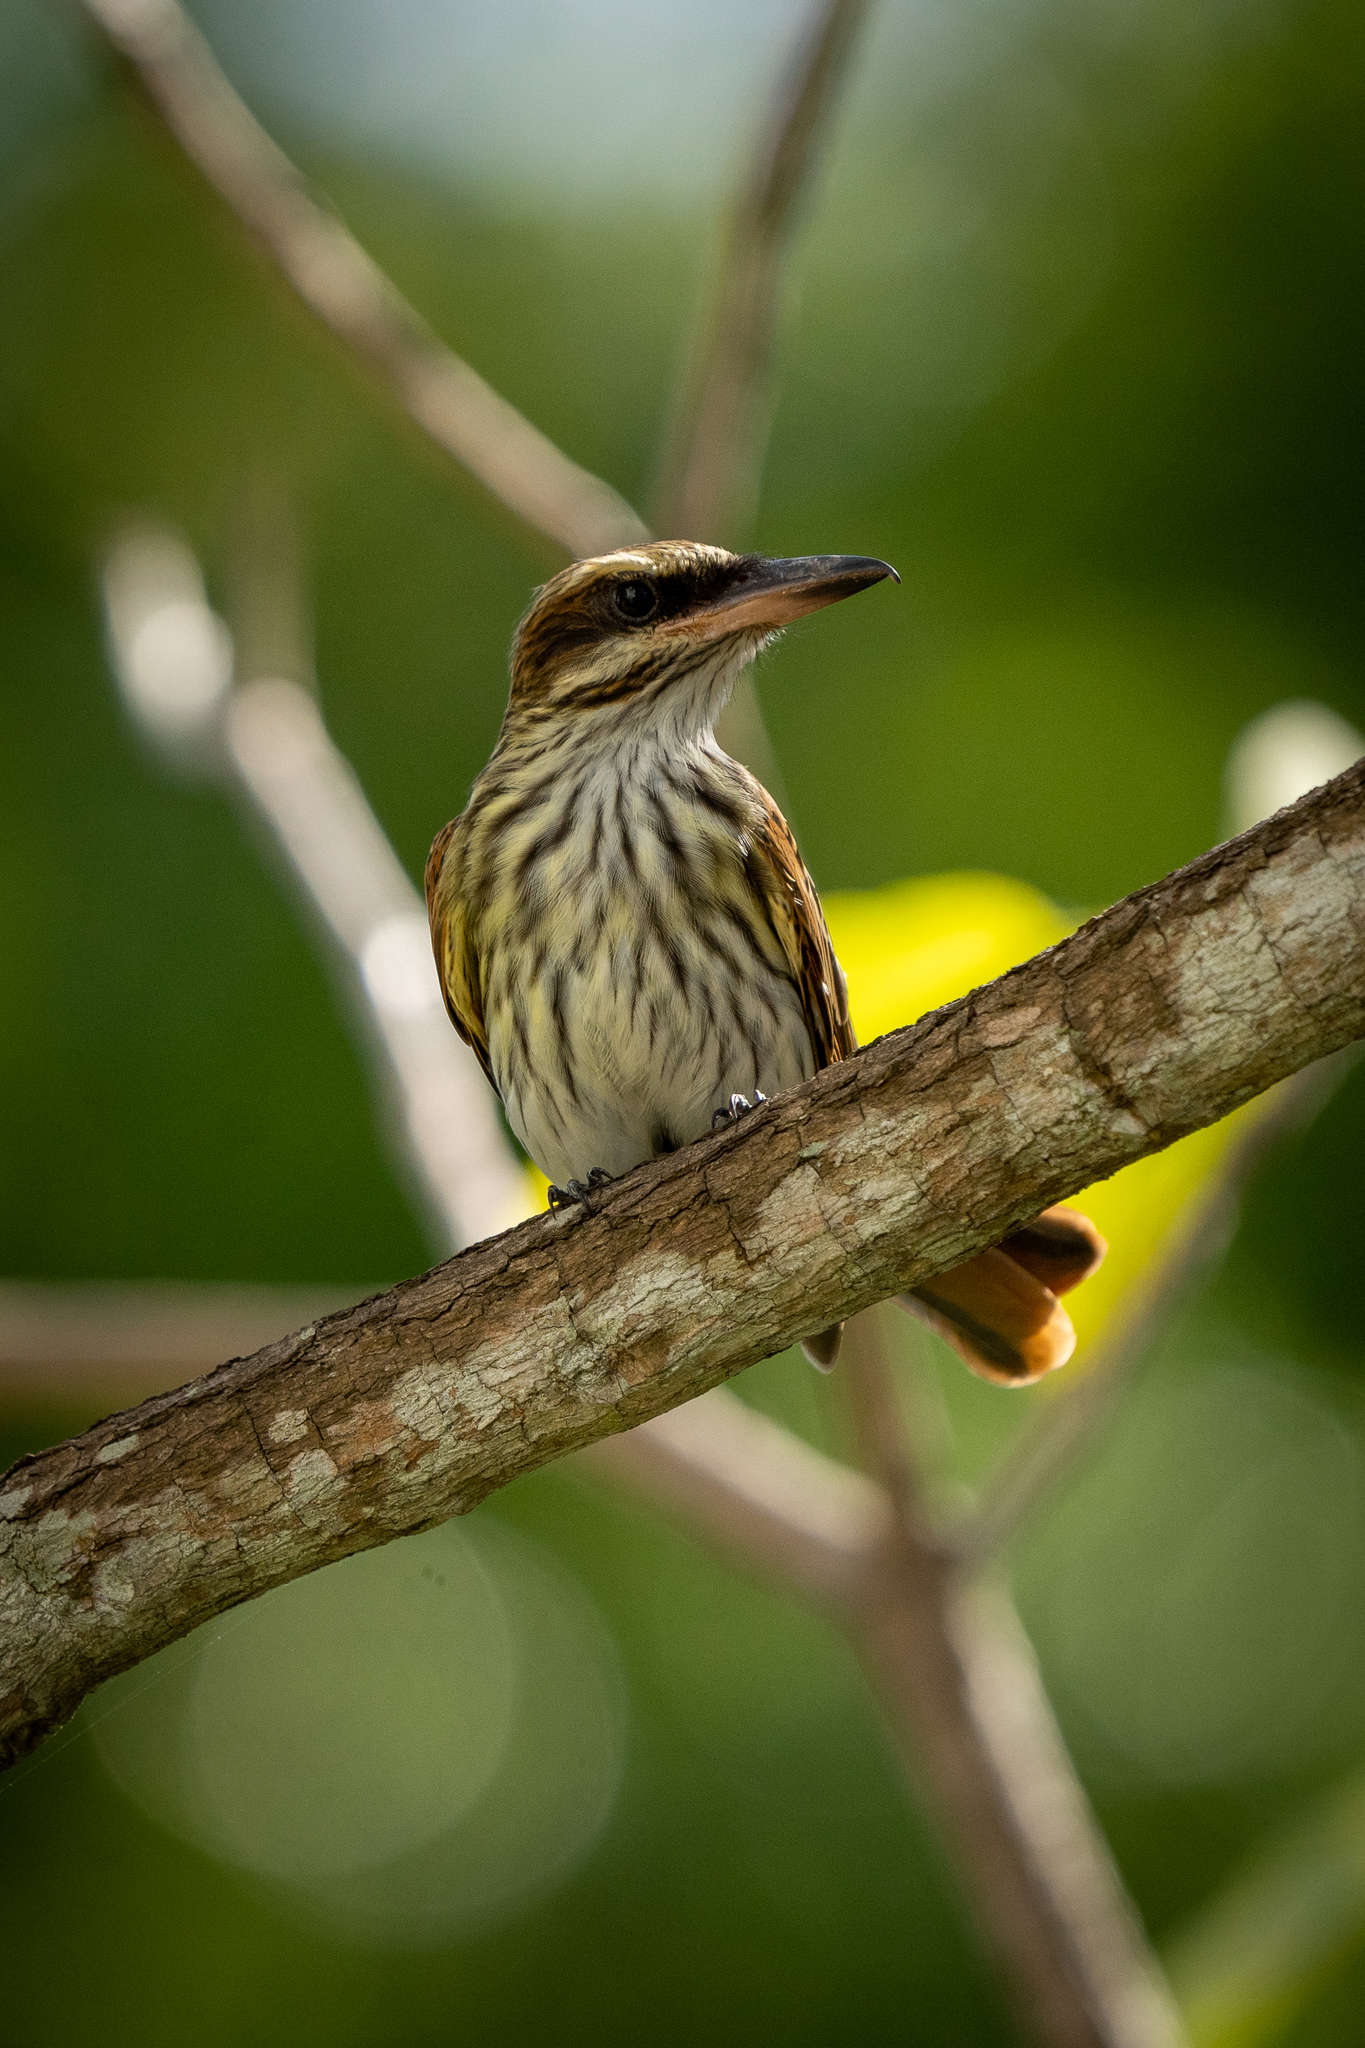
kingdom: Animalia
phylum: Chordata
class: Aves
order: Passeriformes
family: Tyrannidae
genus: Myiodynastes
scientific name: Myiodynastes maculatus
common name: Streaked flycatcher
